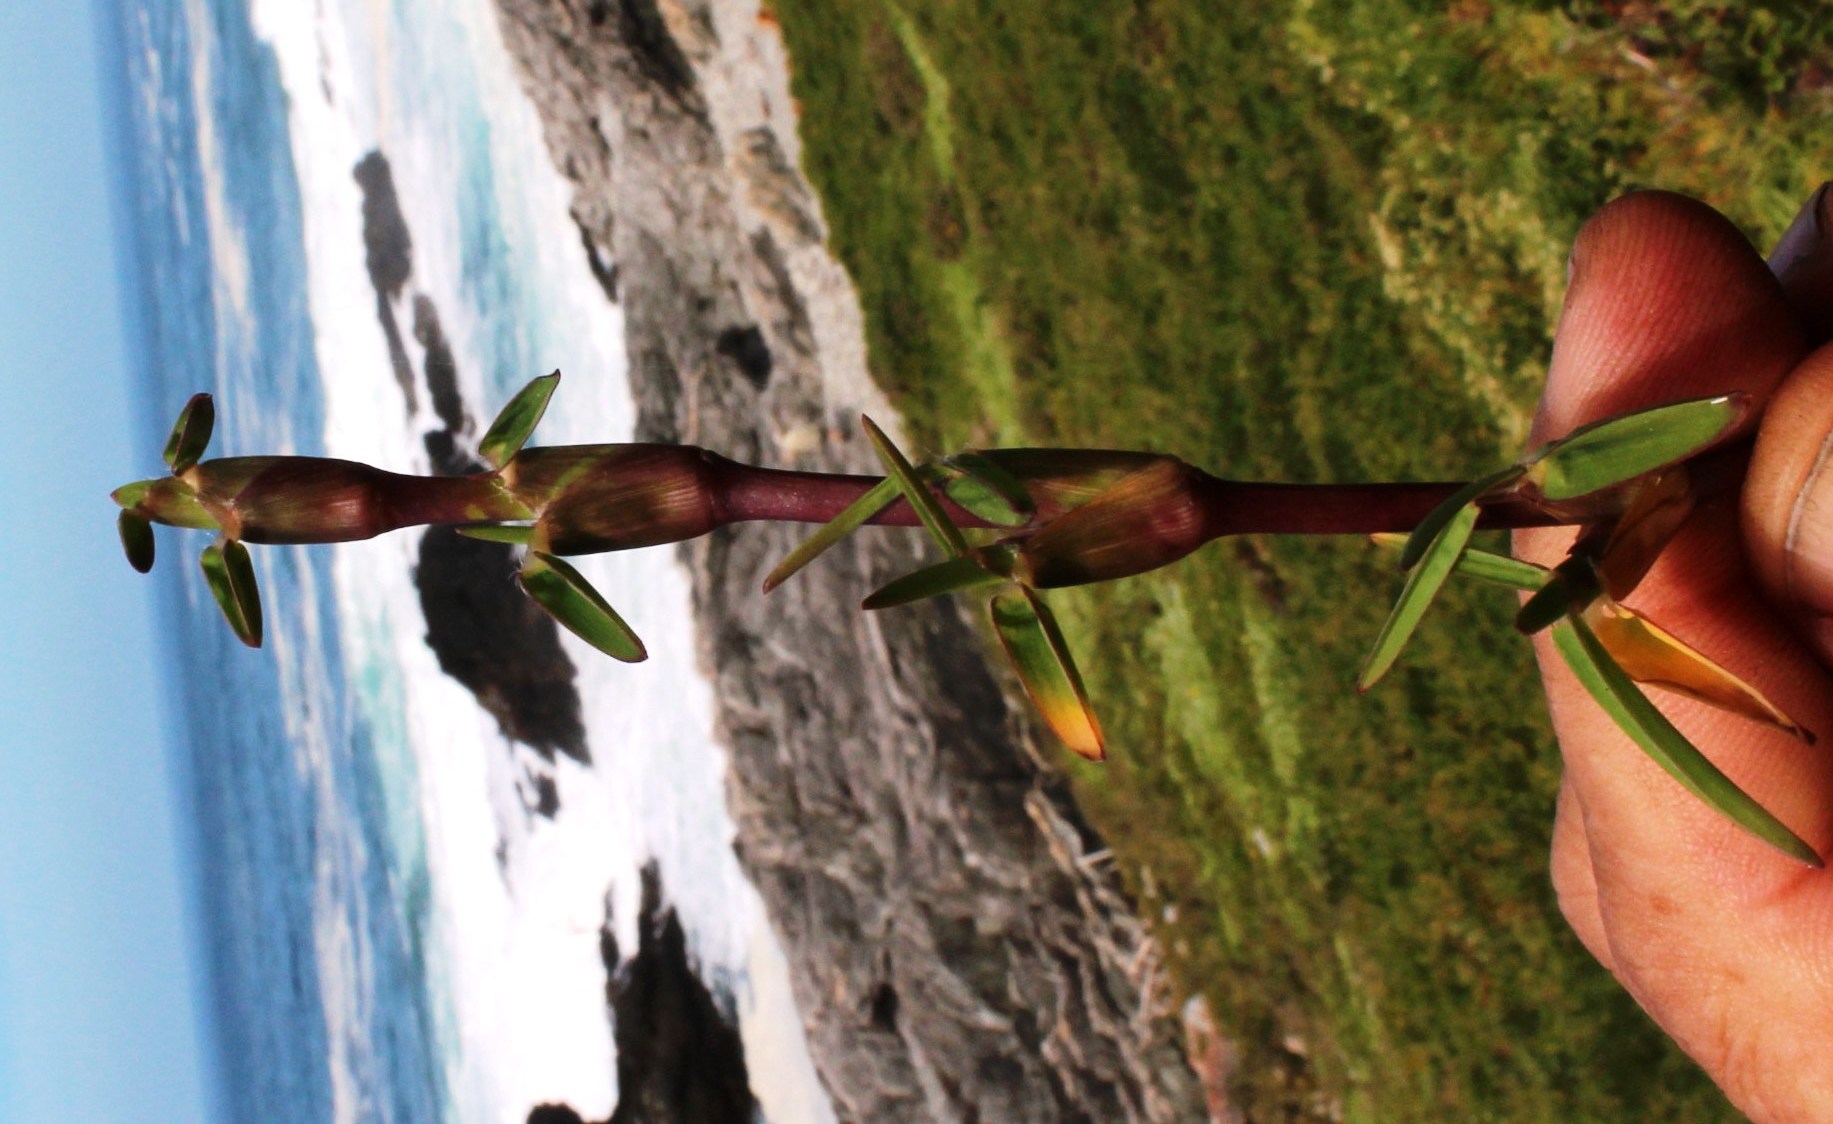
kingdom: Plantae
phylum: Tracheophyta
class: Liliopsida
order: Poales
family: Poaceae
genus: Stenotaphrum
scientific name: Stenotaphrum secundatum
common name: St. augustine grass
